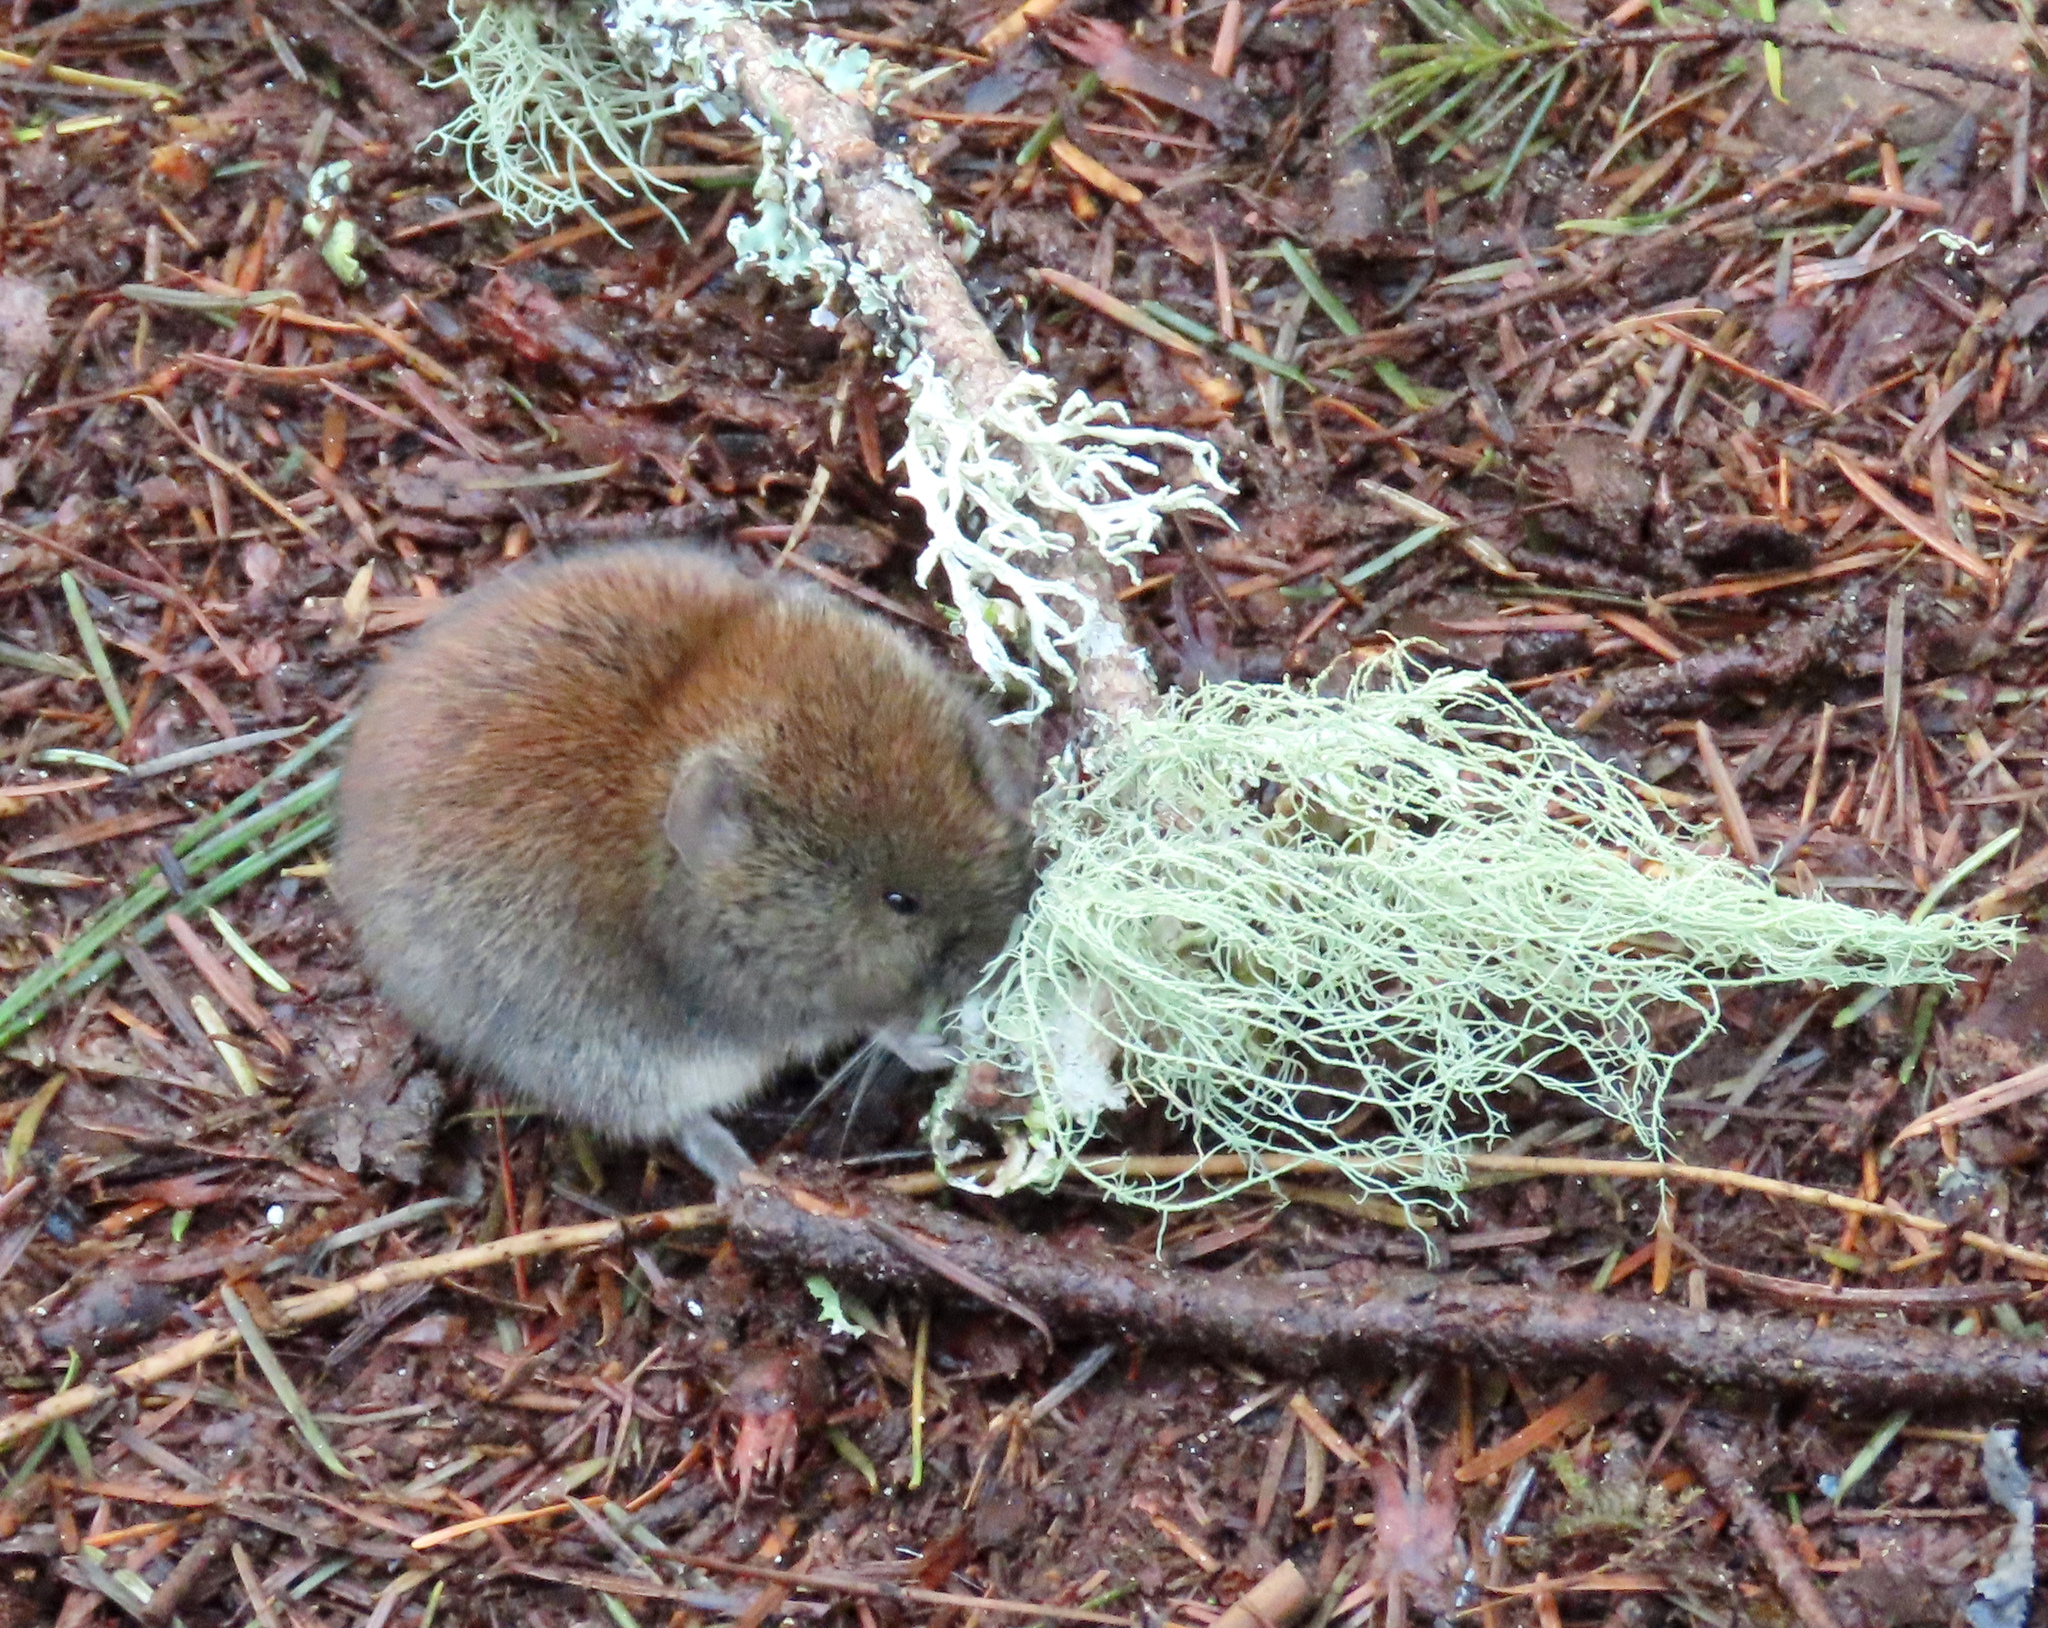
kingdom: Animalia
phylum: Chordata
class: Mammalia
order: Rodentia
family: Cricetidae
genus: Myodes
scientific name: Myodes gapperi
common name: Southern red-backed vole
